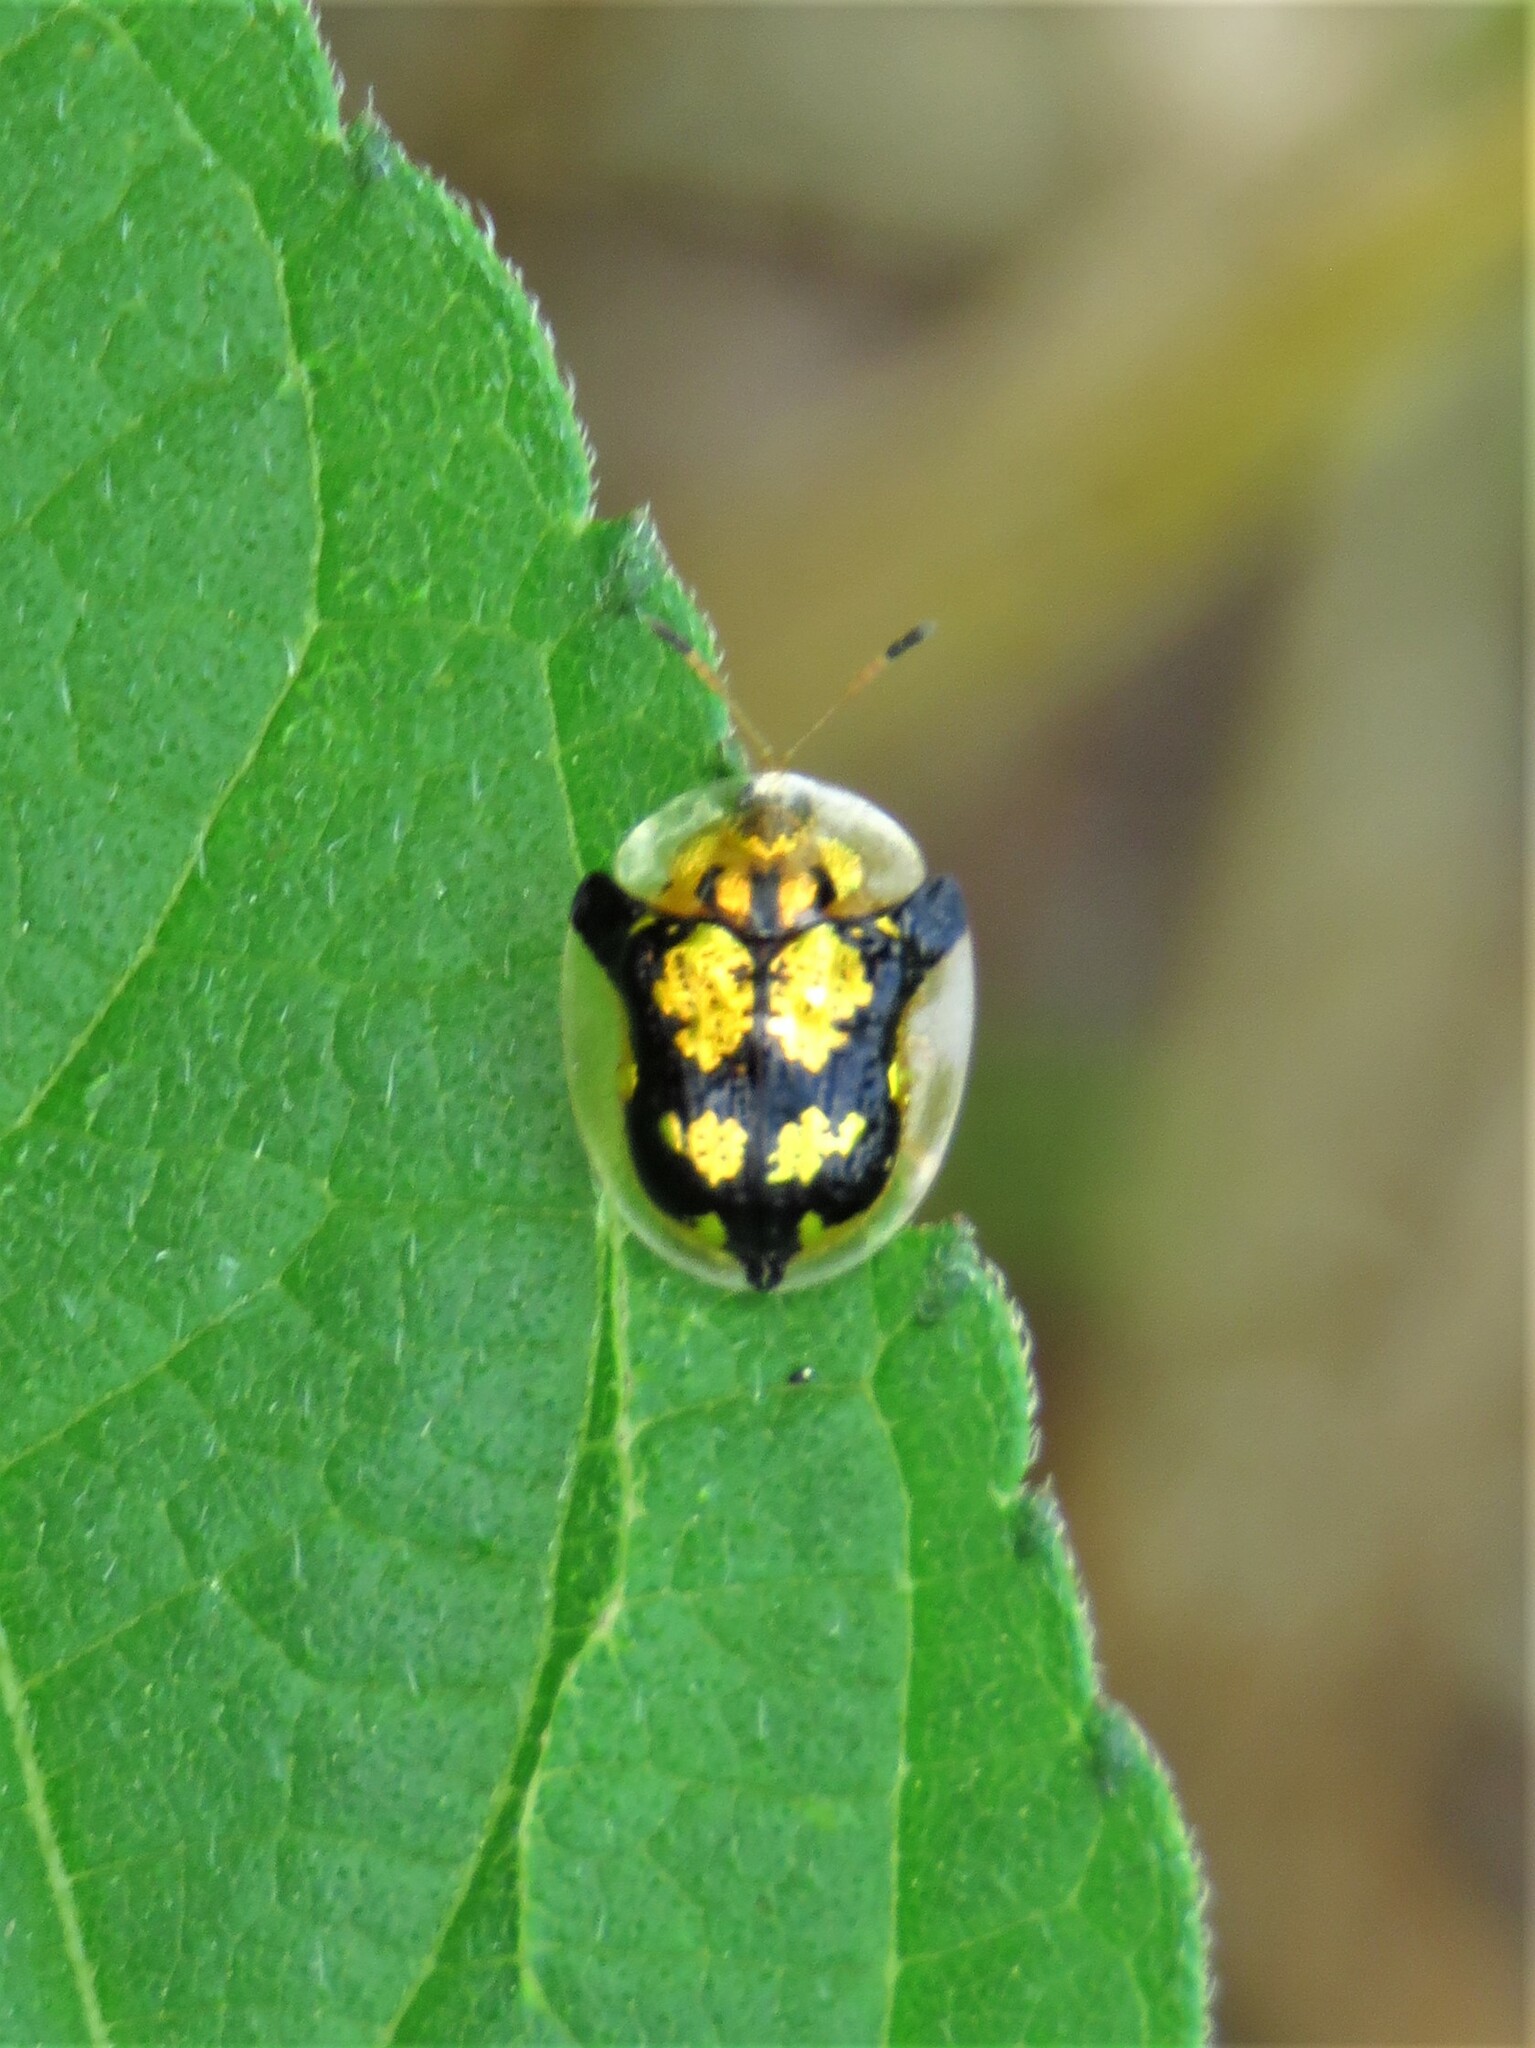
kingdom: Animalia
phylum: Arthropoda
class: Insecta
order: Coleoptera
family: Chrysomelidae
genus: Deloyala
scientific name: Deloyala guttata
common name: Mottled tortoise beetle
